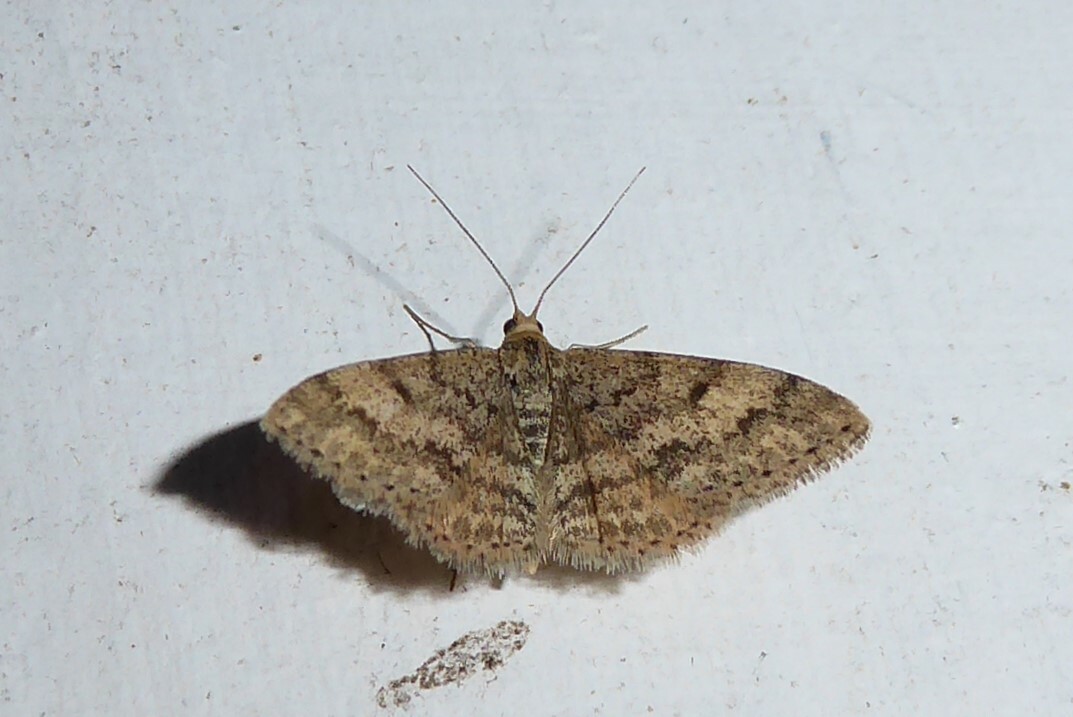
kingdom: Animalia
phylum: Arthropoda
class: Insecta
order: Lepidoptera
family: Geometridae
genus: Scopula
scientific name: Scopula rubraria
